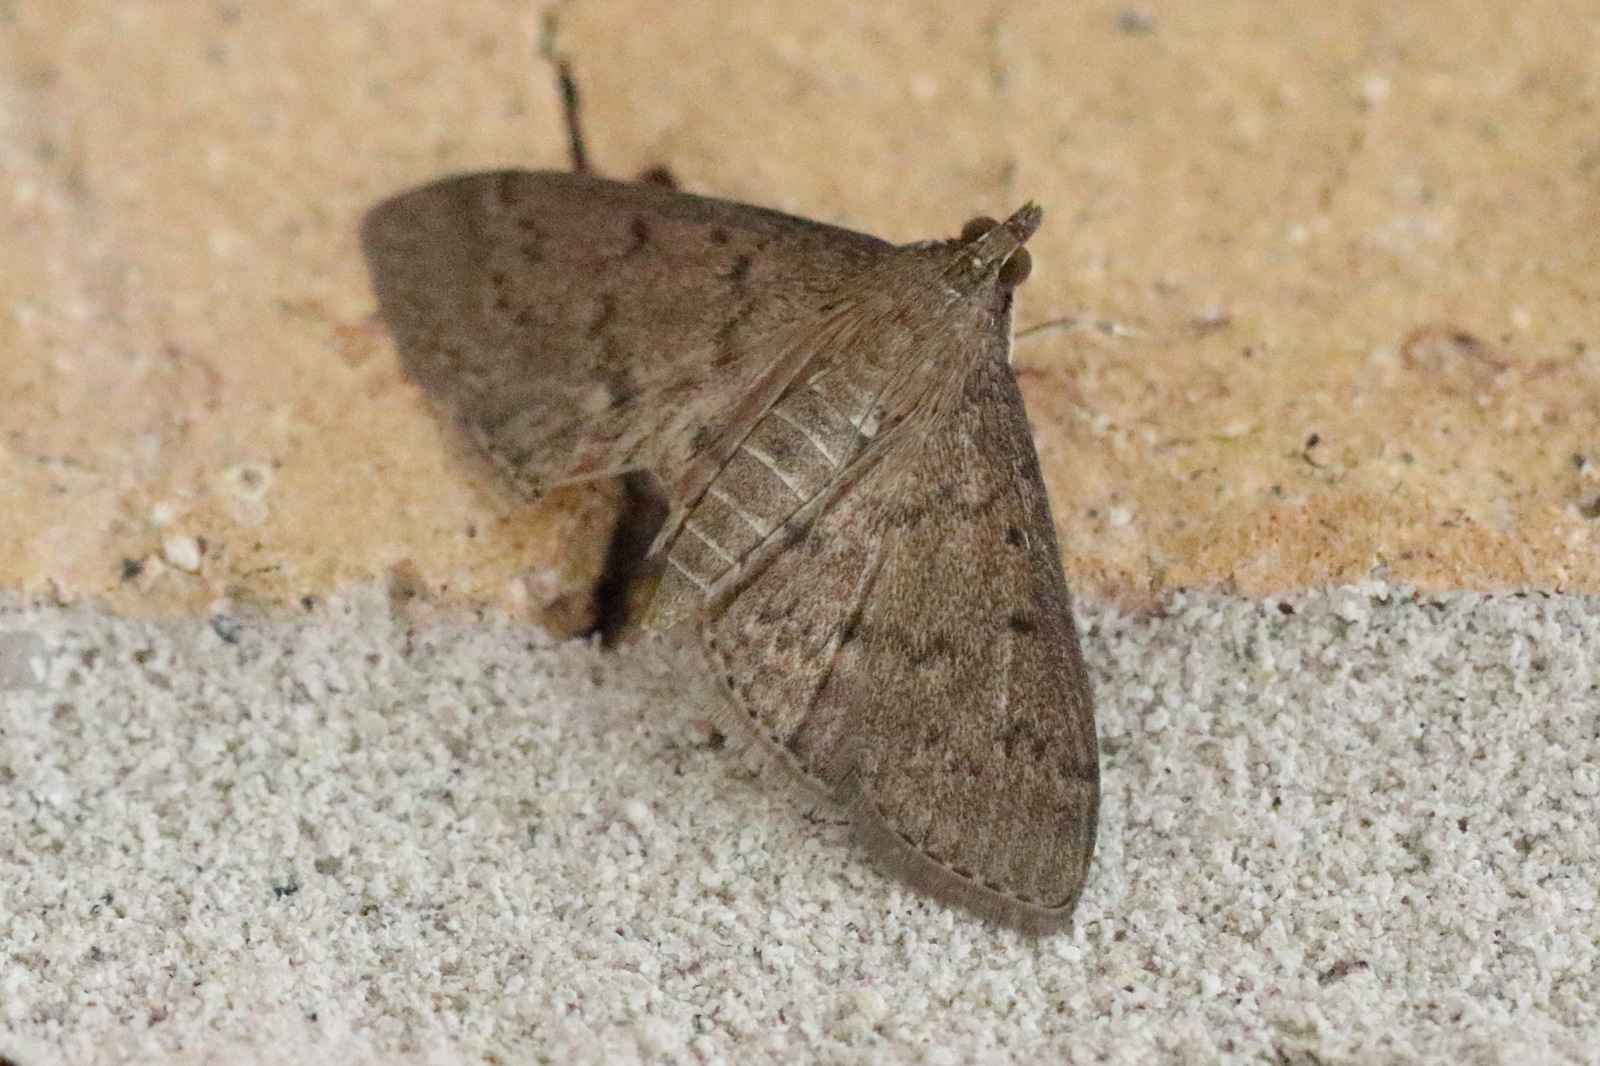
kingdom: Animalia
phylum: Arthropoda
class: Insecta
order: Lepidoptera
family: Crambidae
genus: Herpetogramma
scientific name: Herpetogramma licarsisalis
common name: Grass webworm
